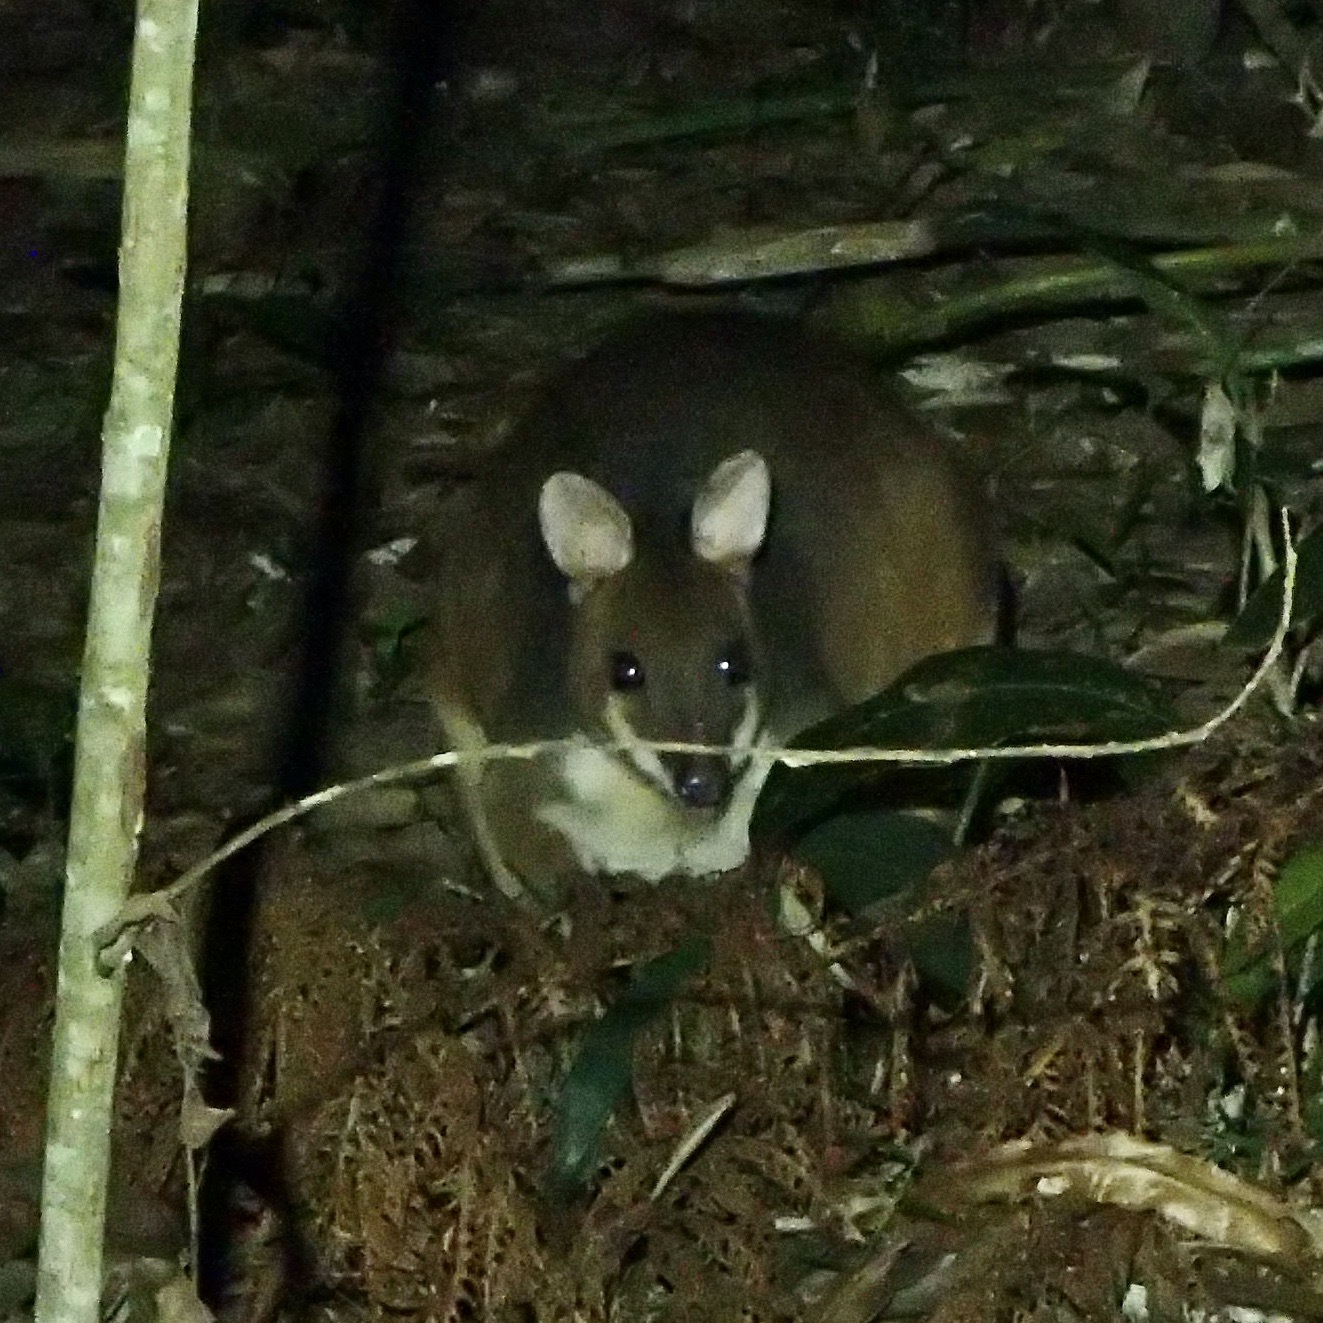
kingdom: Animalia
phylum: Chordata
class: Mammalia
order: Diprotodontia
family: Macropodidae
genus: Thylogale
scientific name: Thylogale stigmatica
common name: Red-legged pademelon
